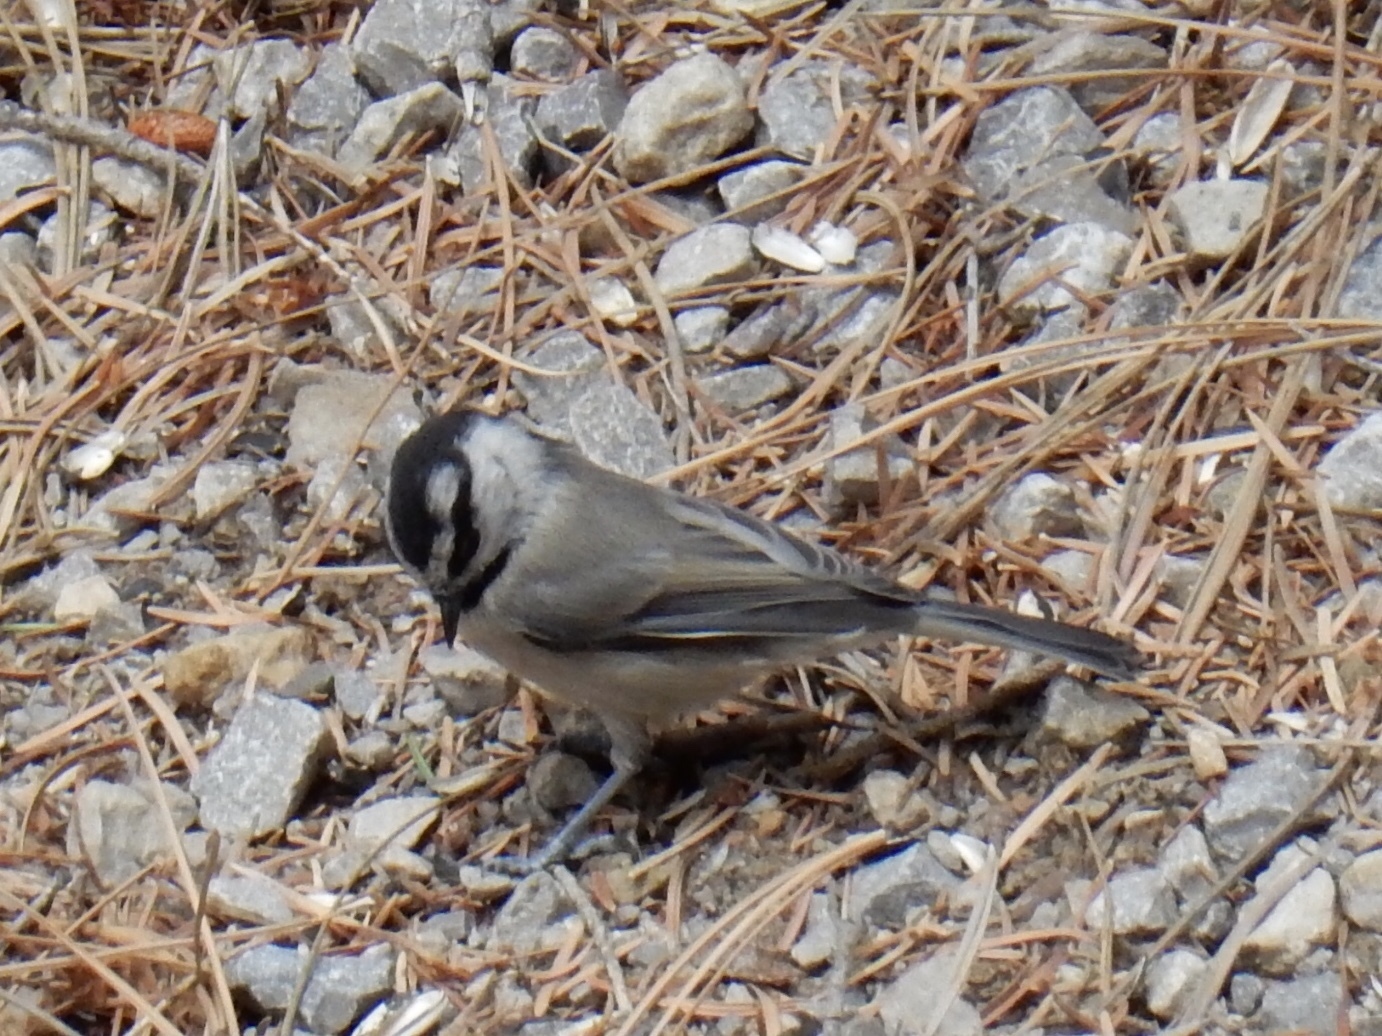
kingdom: Animalia
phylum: Chordata
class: Aves
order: Passeriformes
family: Paridae
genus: Poecile
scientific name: Poecile gambeli
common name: Mountain chickadee
